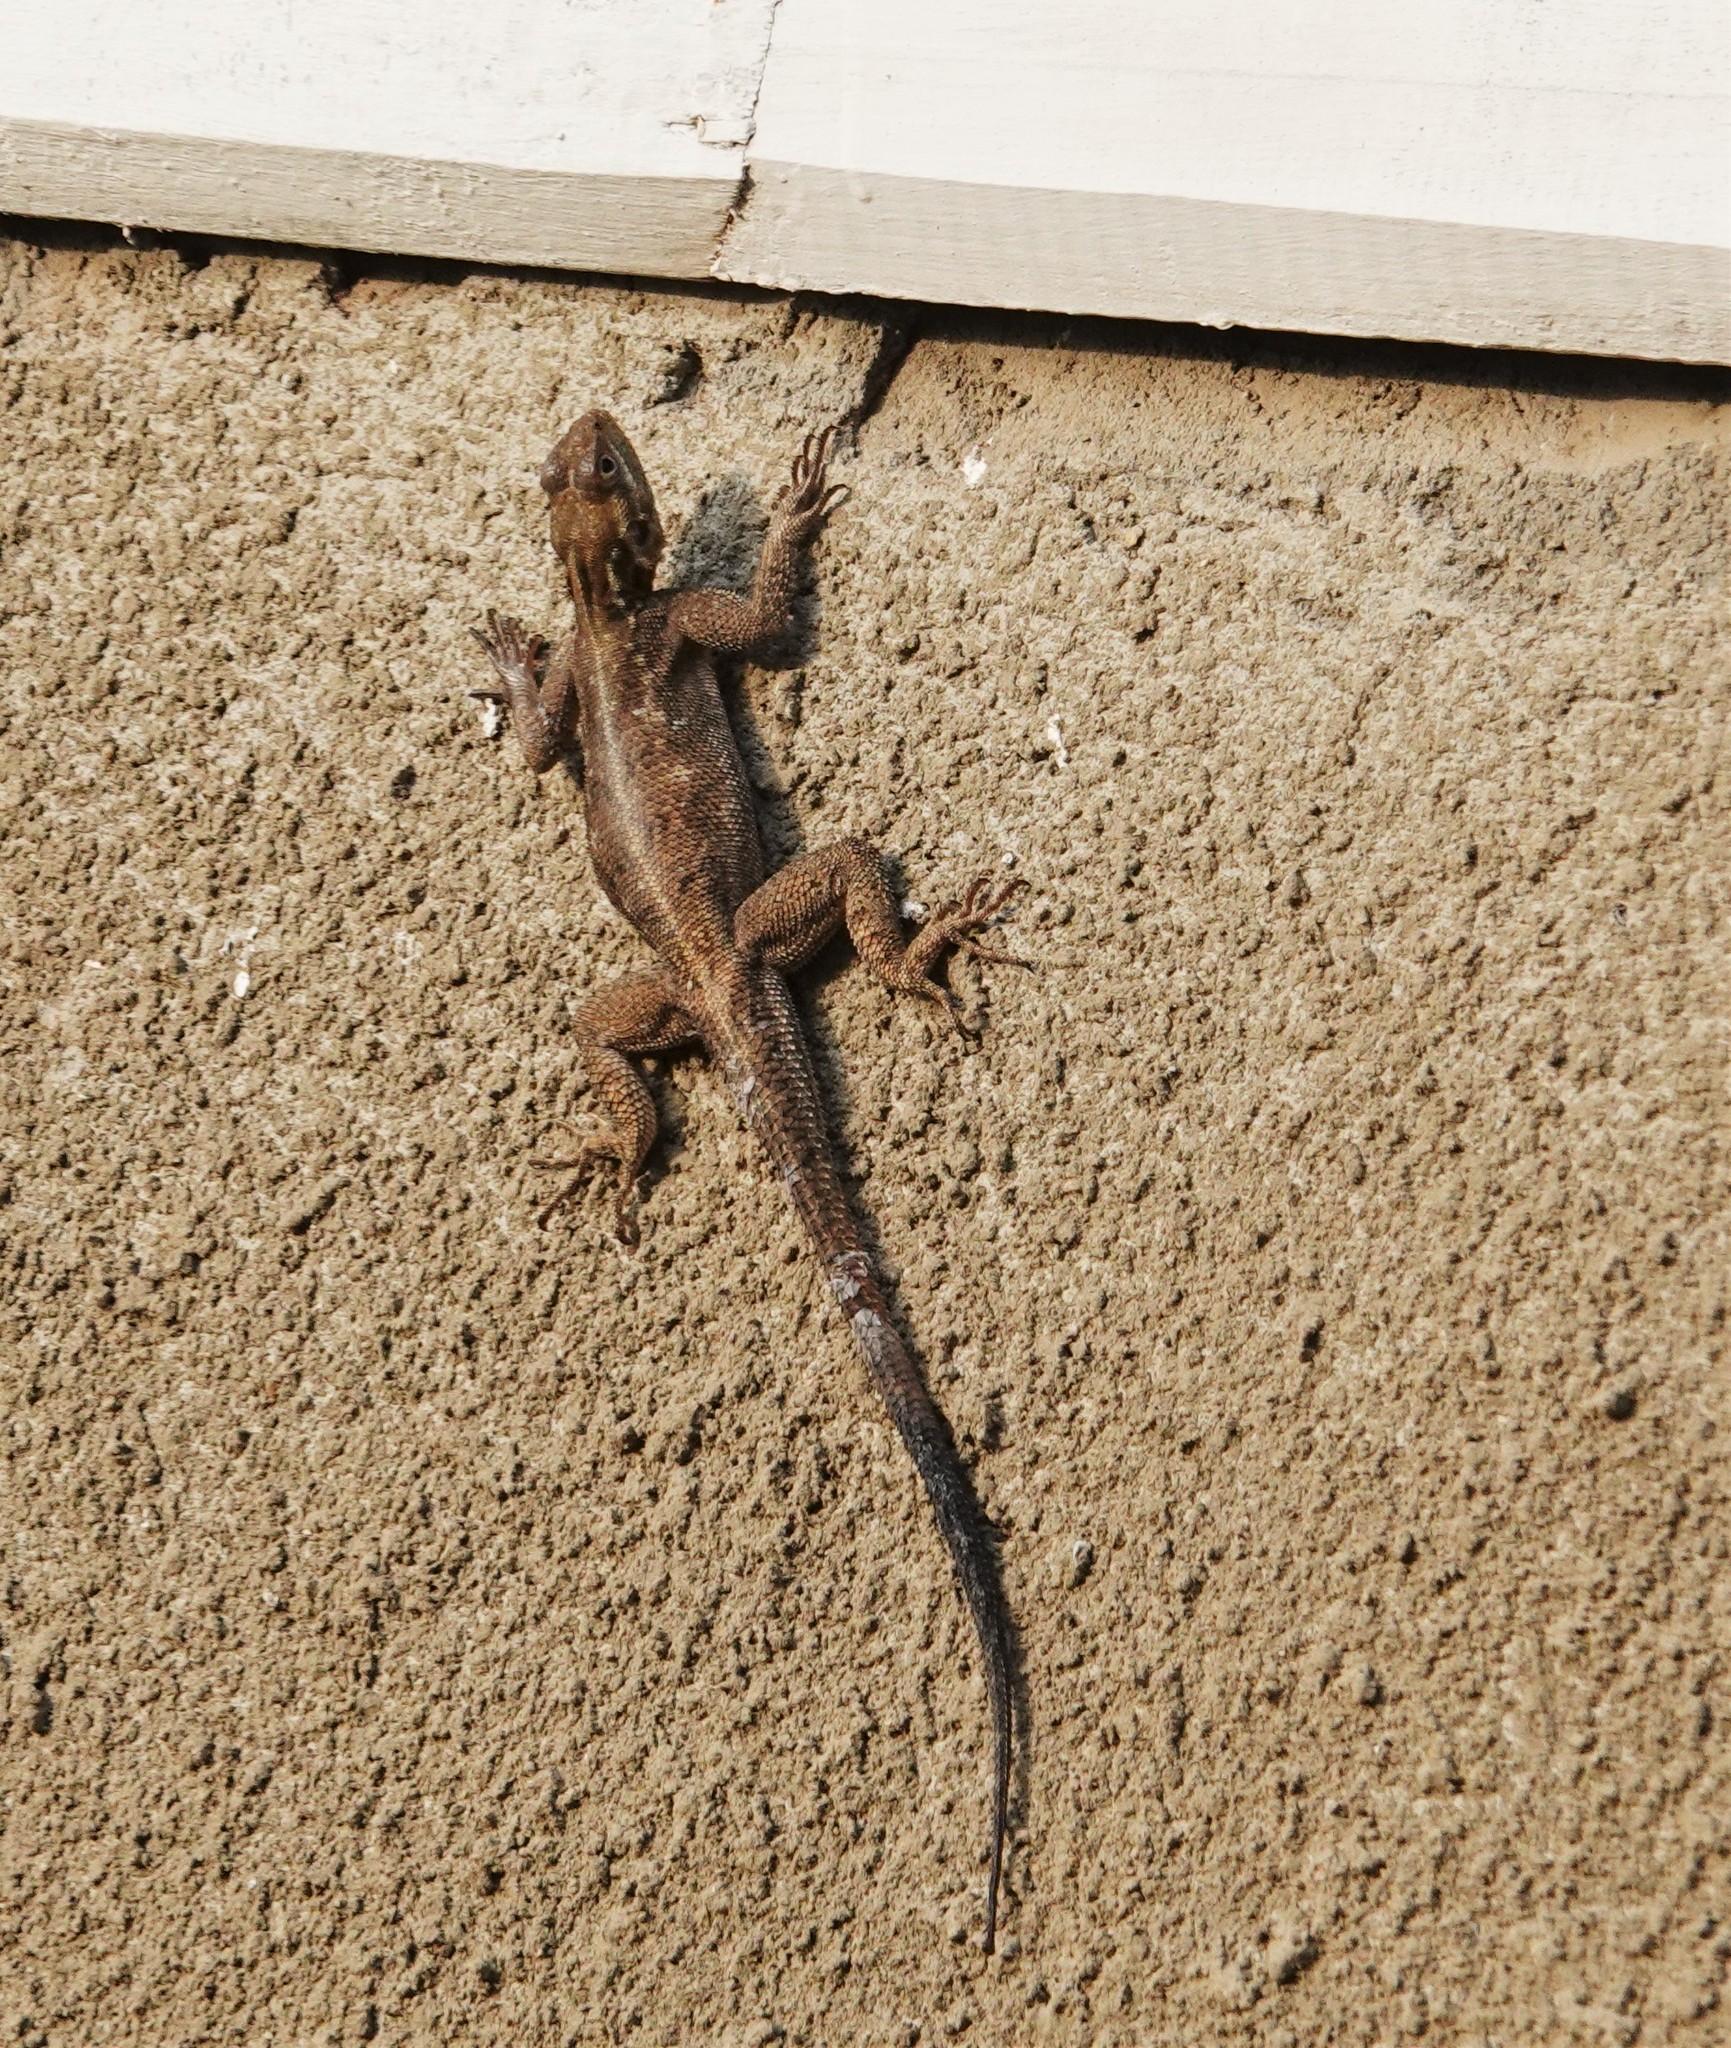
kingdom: Animalia
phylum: Chordata
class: Squamata
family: Agamidae
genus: Agama
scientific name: Agama finchi
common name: Finch’s agama
